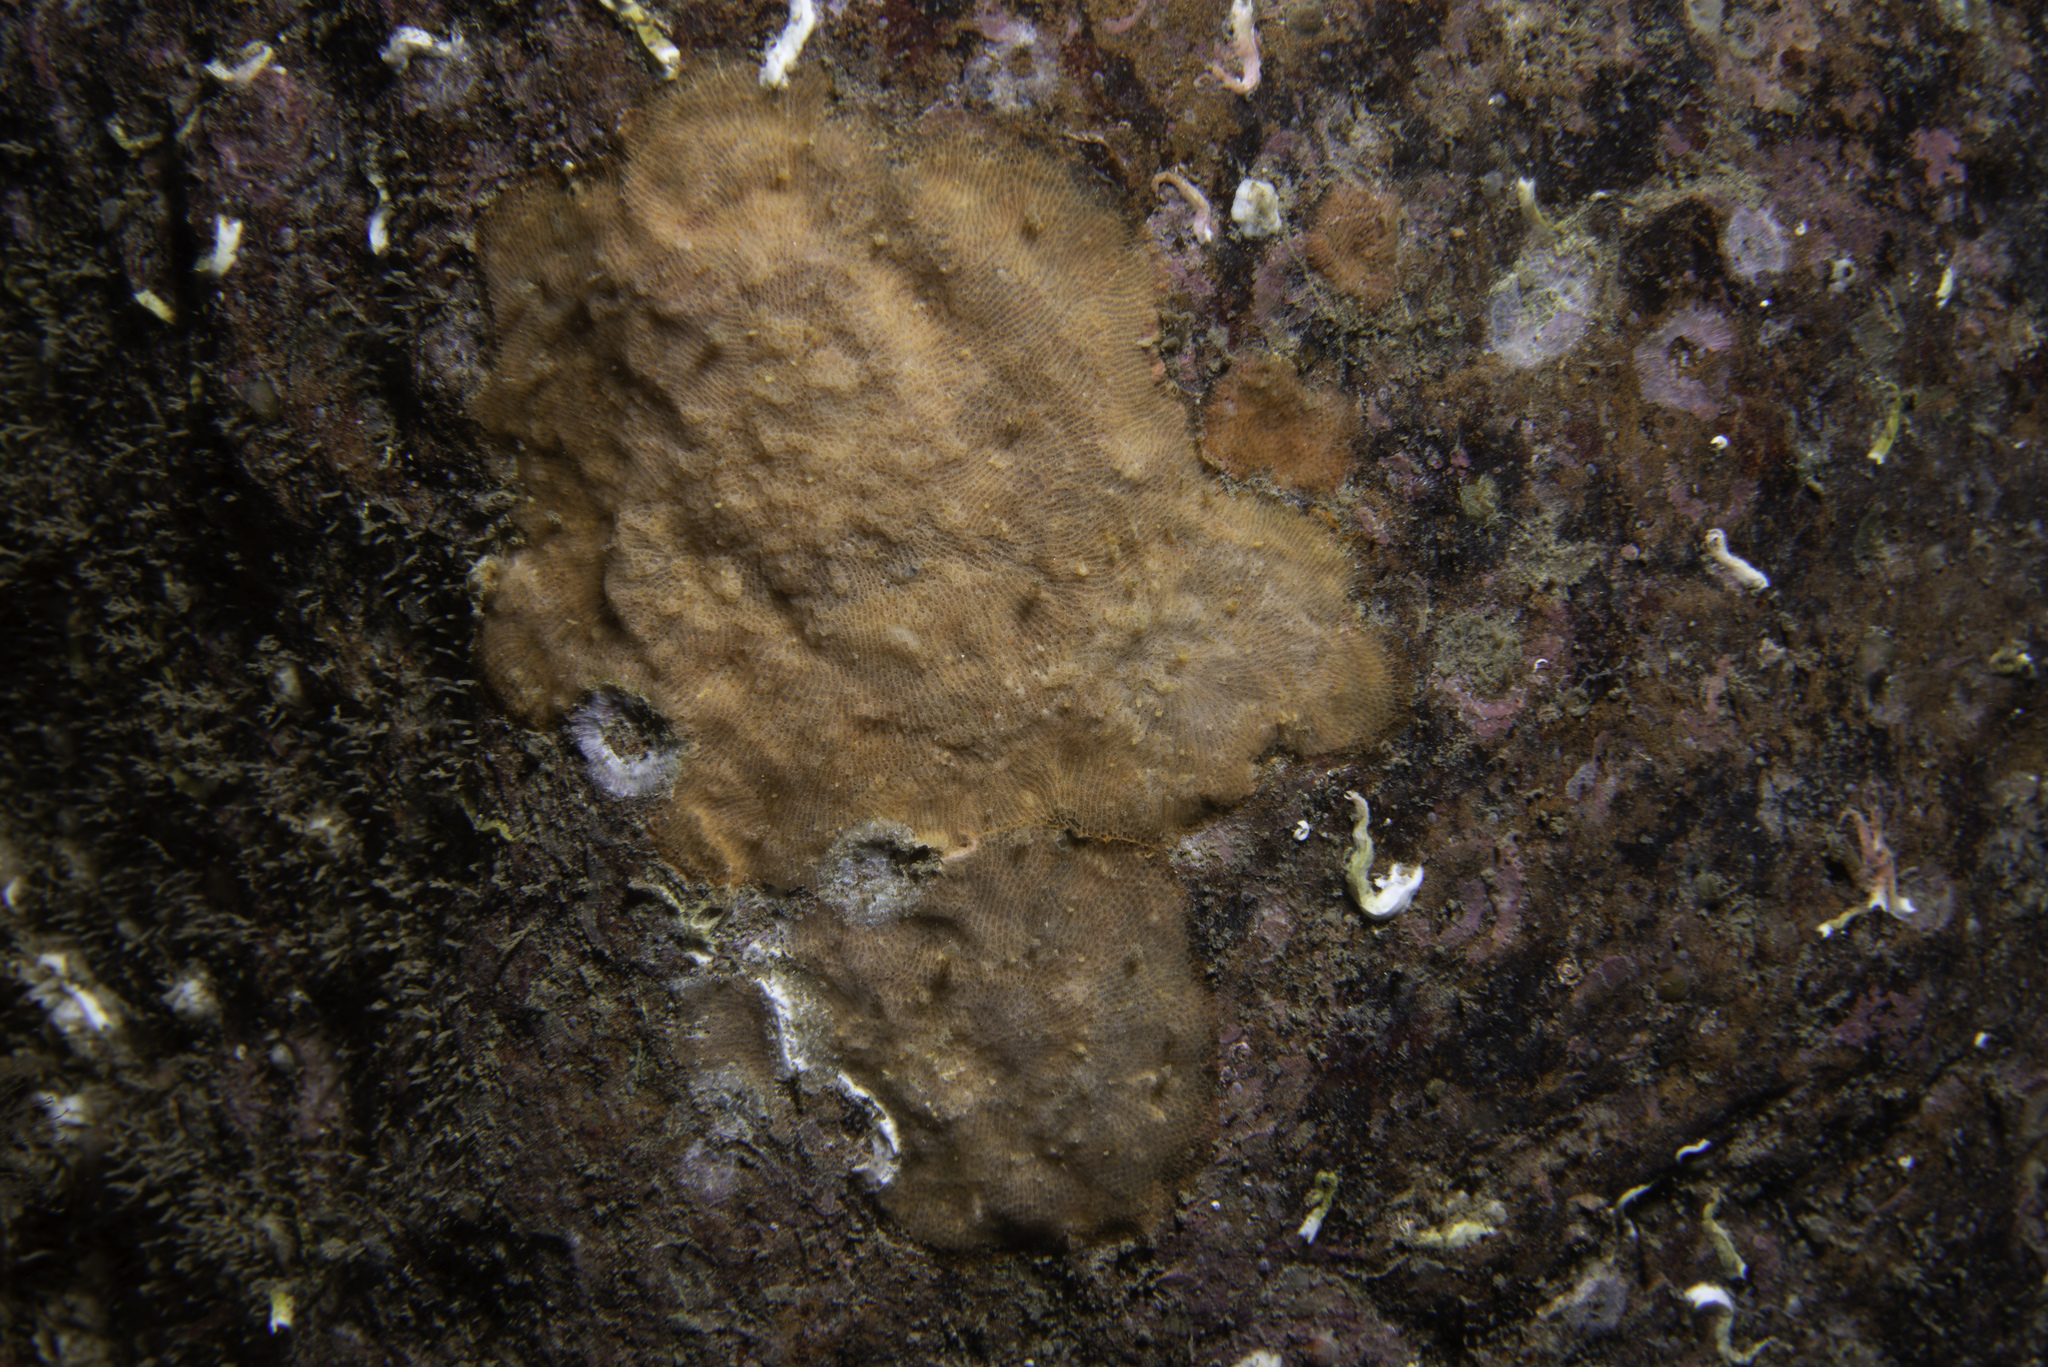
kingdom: Animalia
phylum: Bryozoa
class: Gymnolaemata
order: Cheilostomatida
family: Smittinidae
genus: Parasmittina
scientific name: Parasmittina trispinosa
